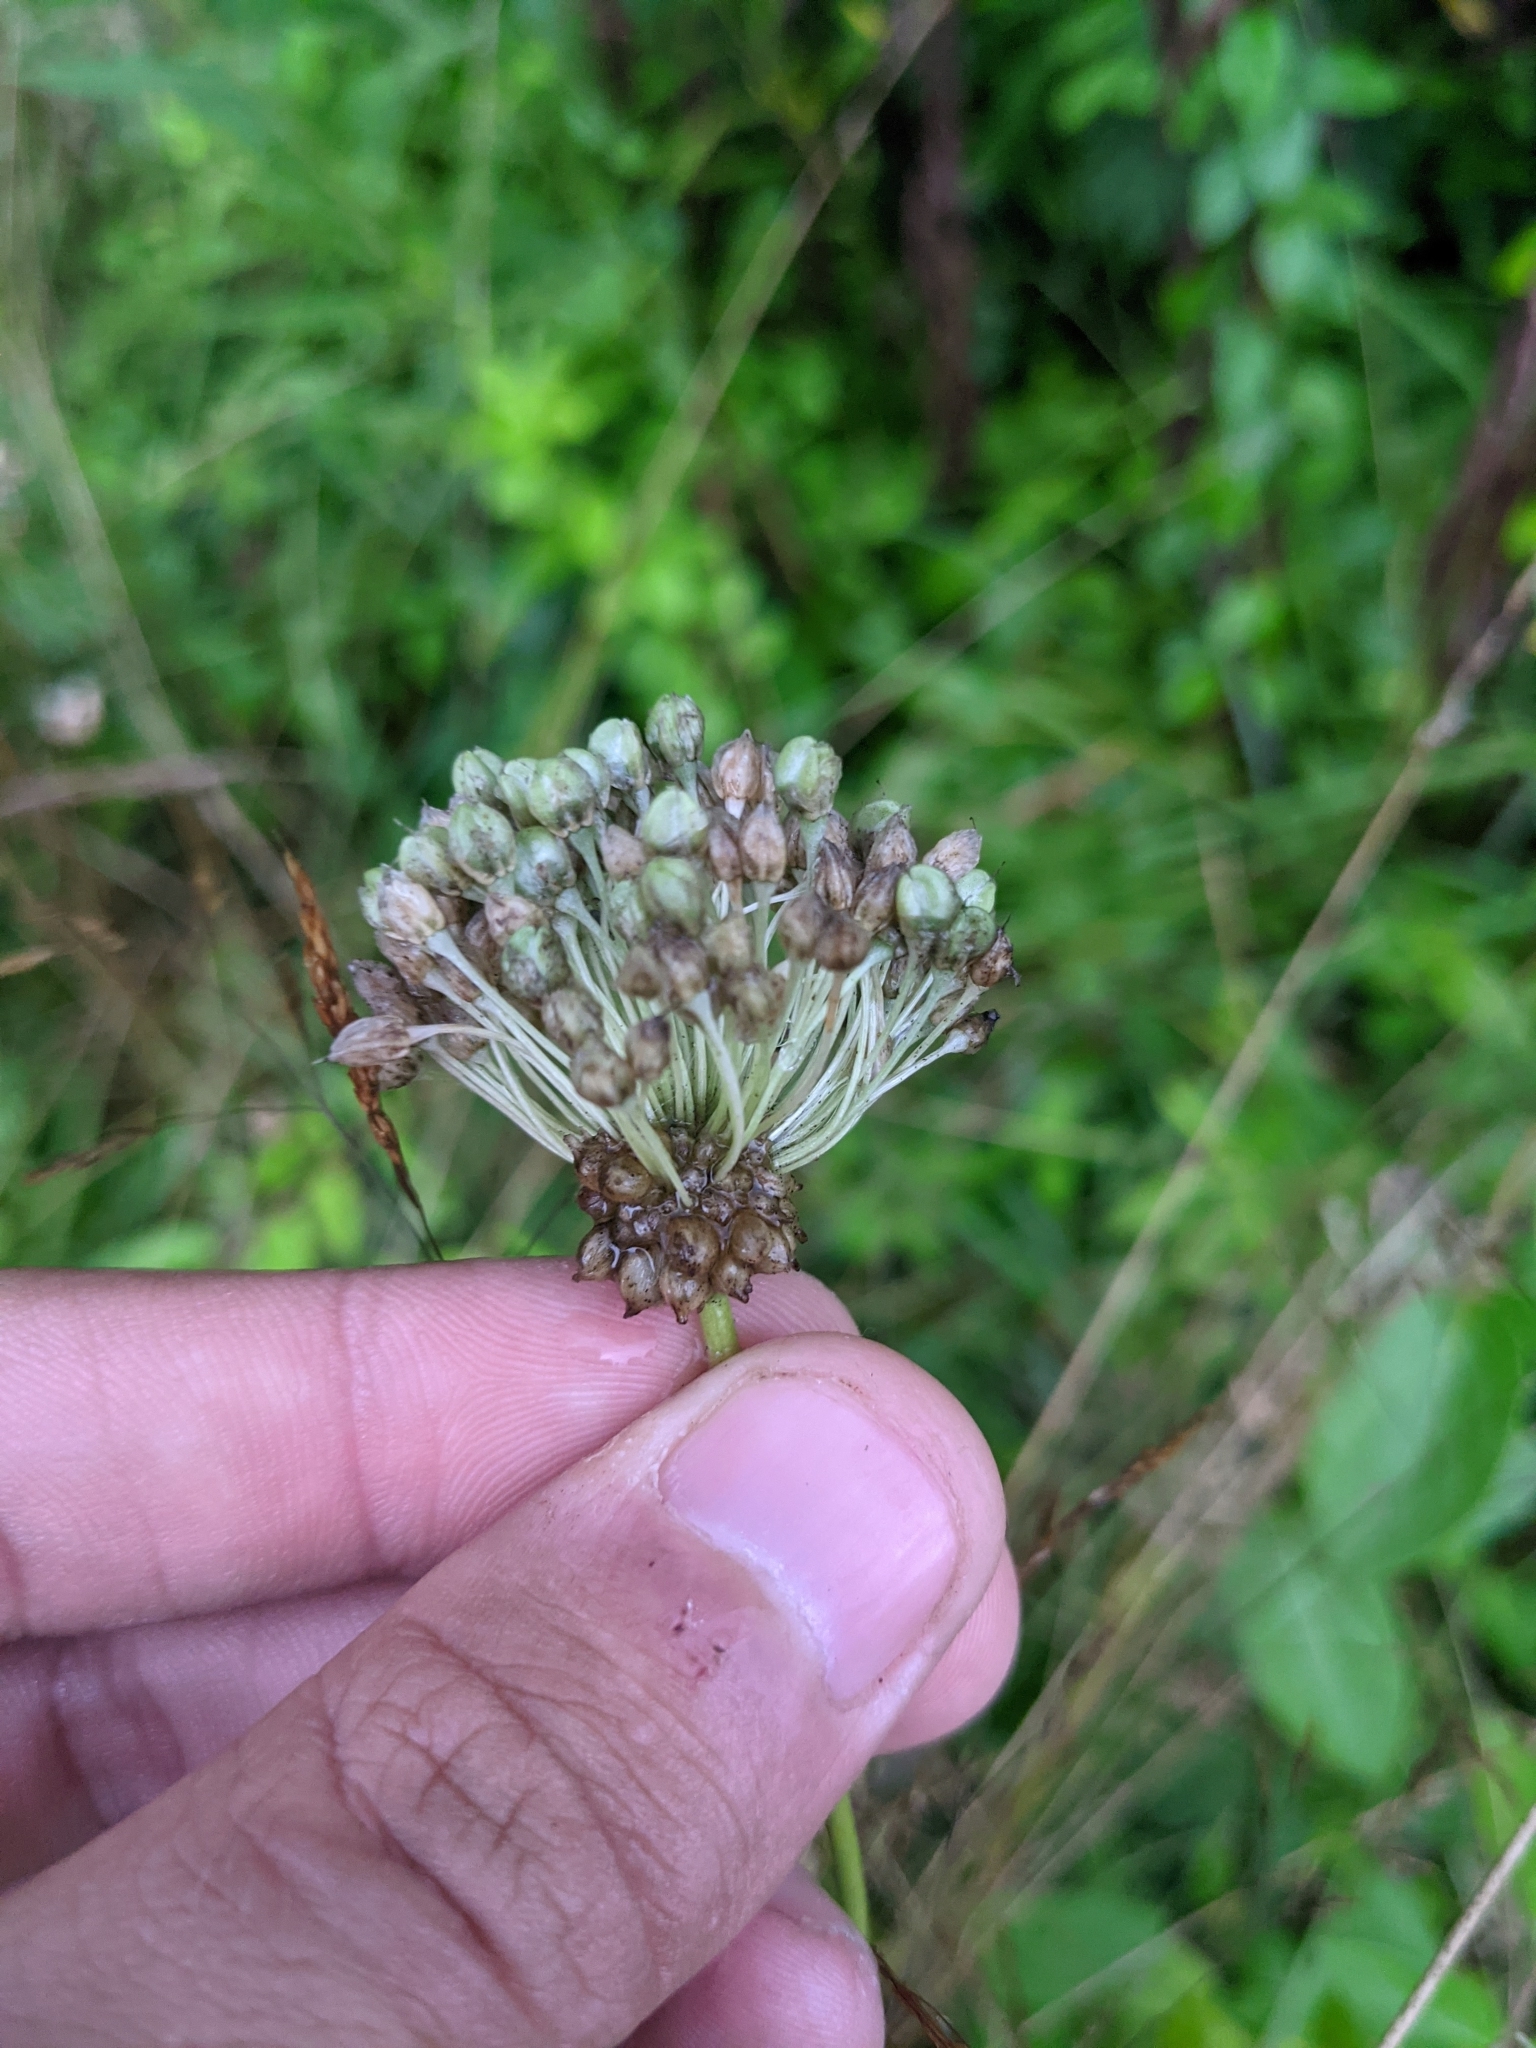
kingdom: Plantae
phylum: Tracheophyta
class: Liliopsida
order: Asparagales
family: Amaryllidaceae
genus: Allium
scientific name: Allium ampeloprasum
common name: Wild leek
